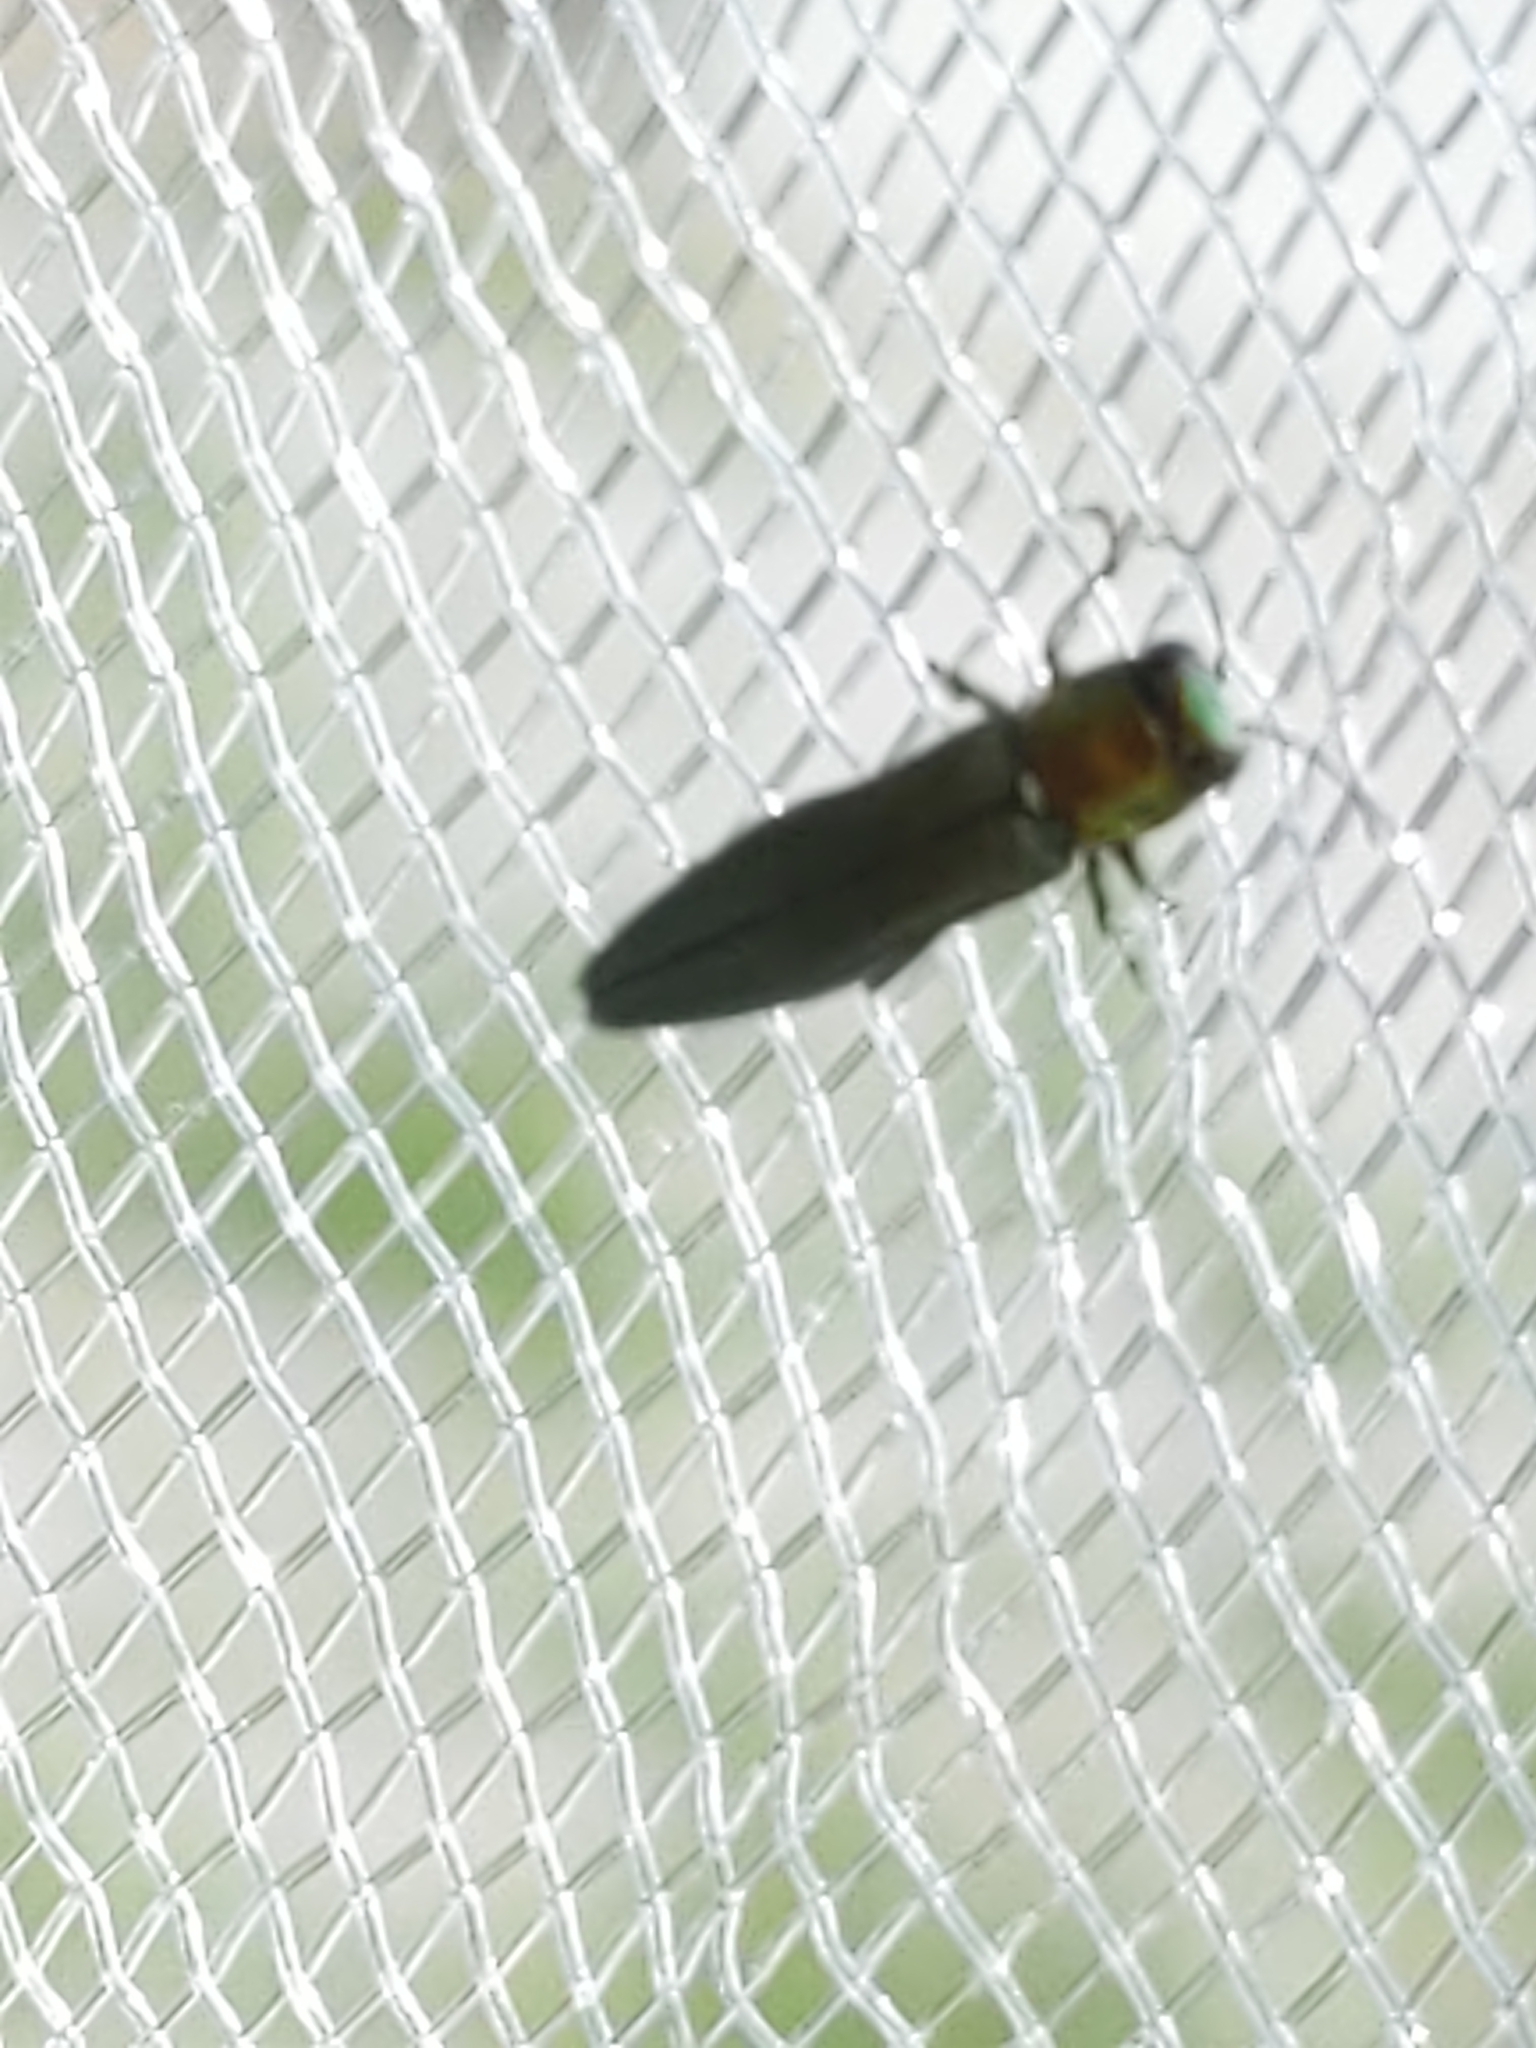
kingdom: Animalia
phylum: Arthropoda
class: Insecta
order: Coleoptera
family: Buprestidae
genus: Agrilus
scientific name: Agrilus smaragdifrons
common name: East asian buprestid
